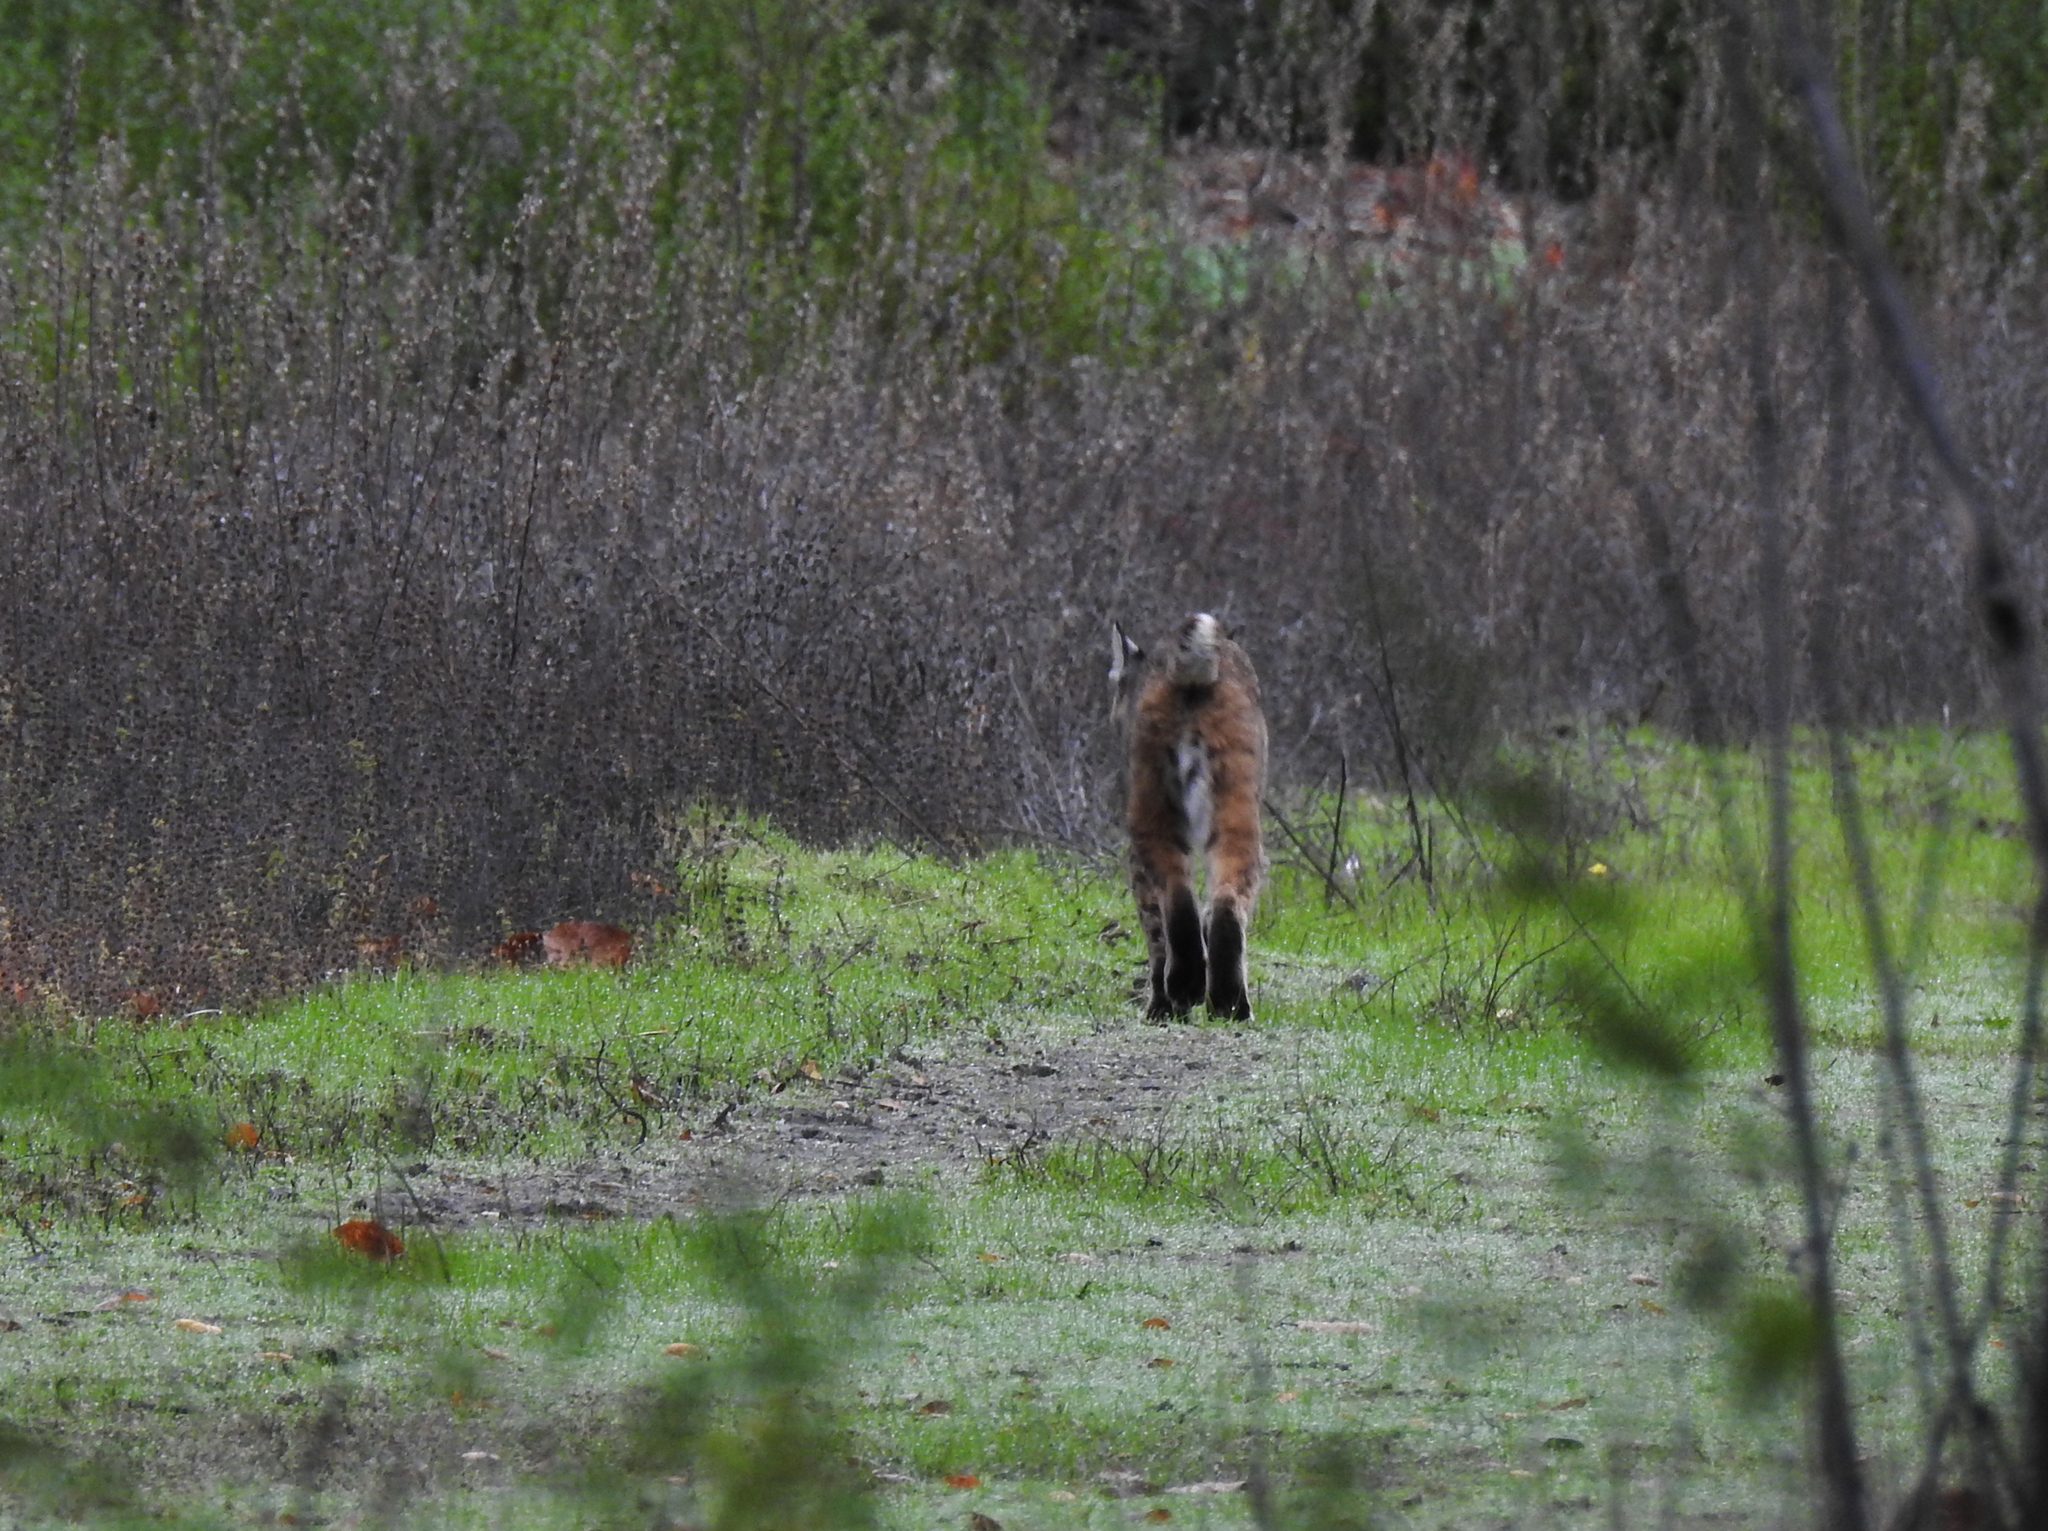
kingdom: Animalia
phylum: Chordata
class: Mammalia
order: Carnivora
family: Felidae
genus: Lynx
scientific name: Lynx rufus
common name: Bobcat
